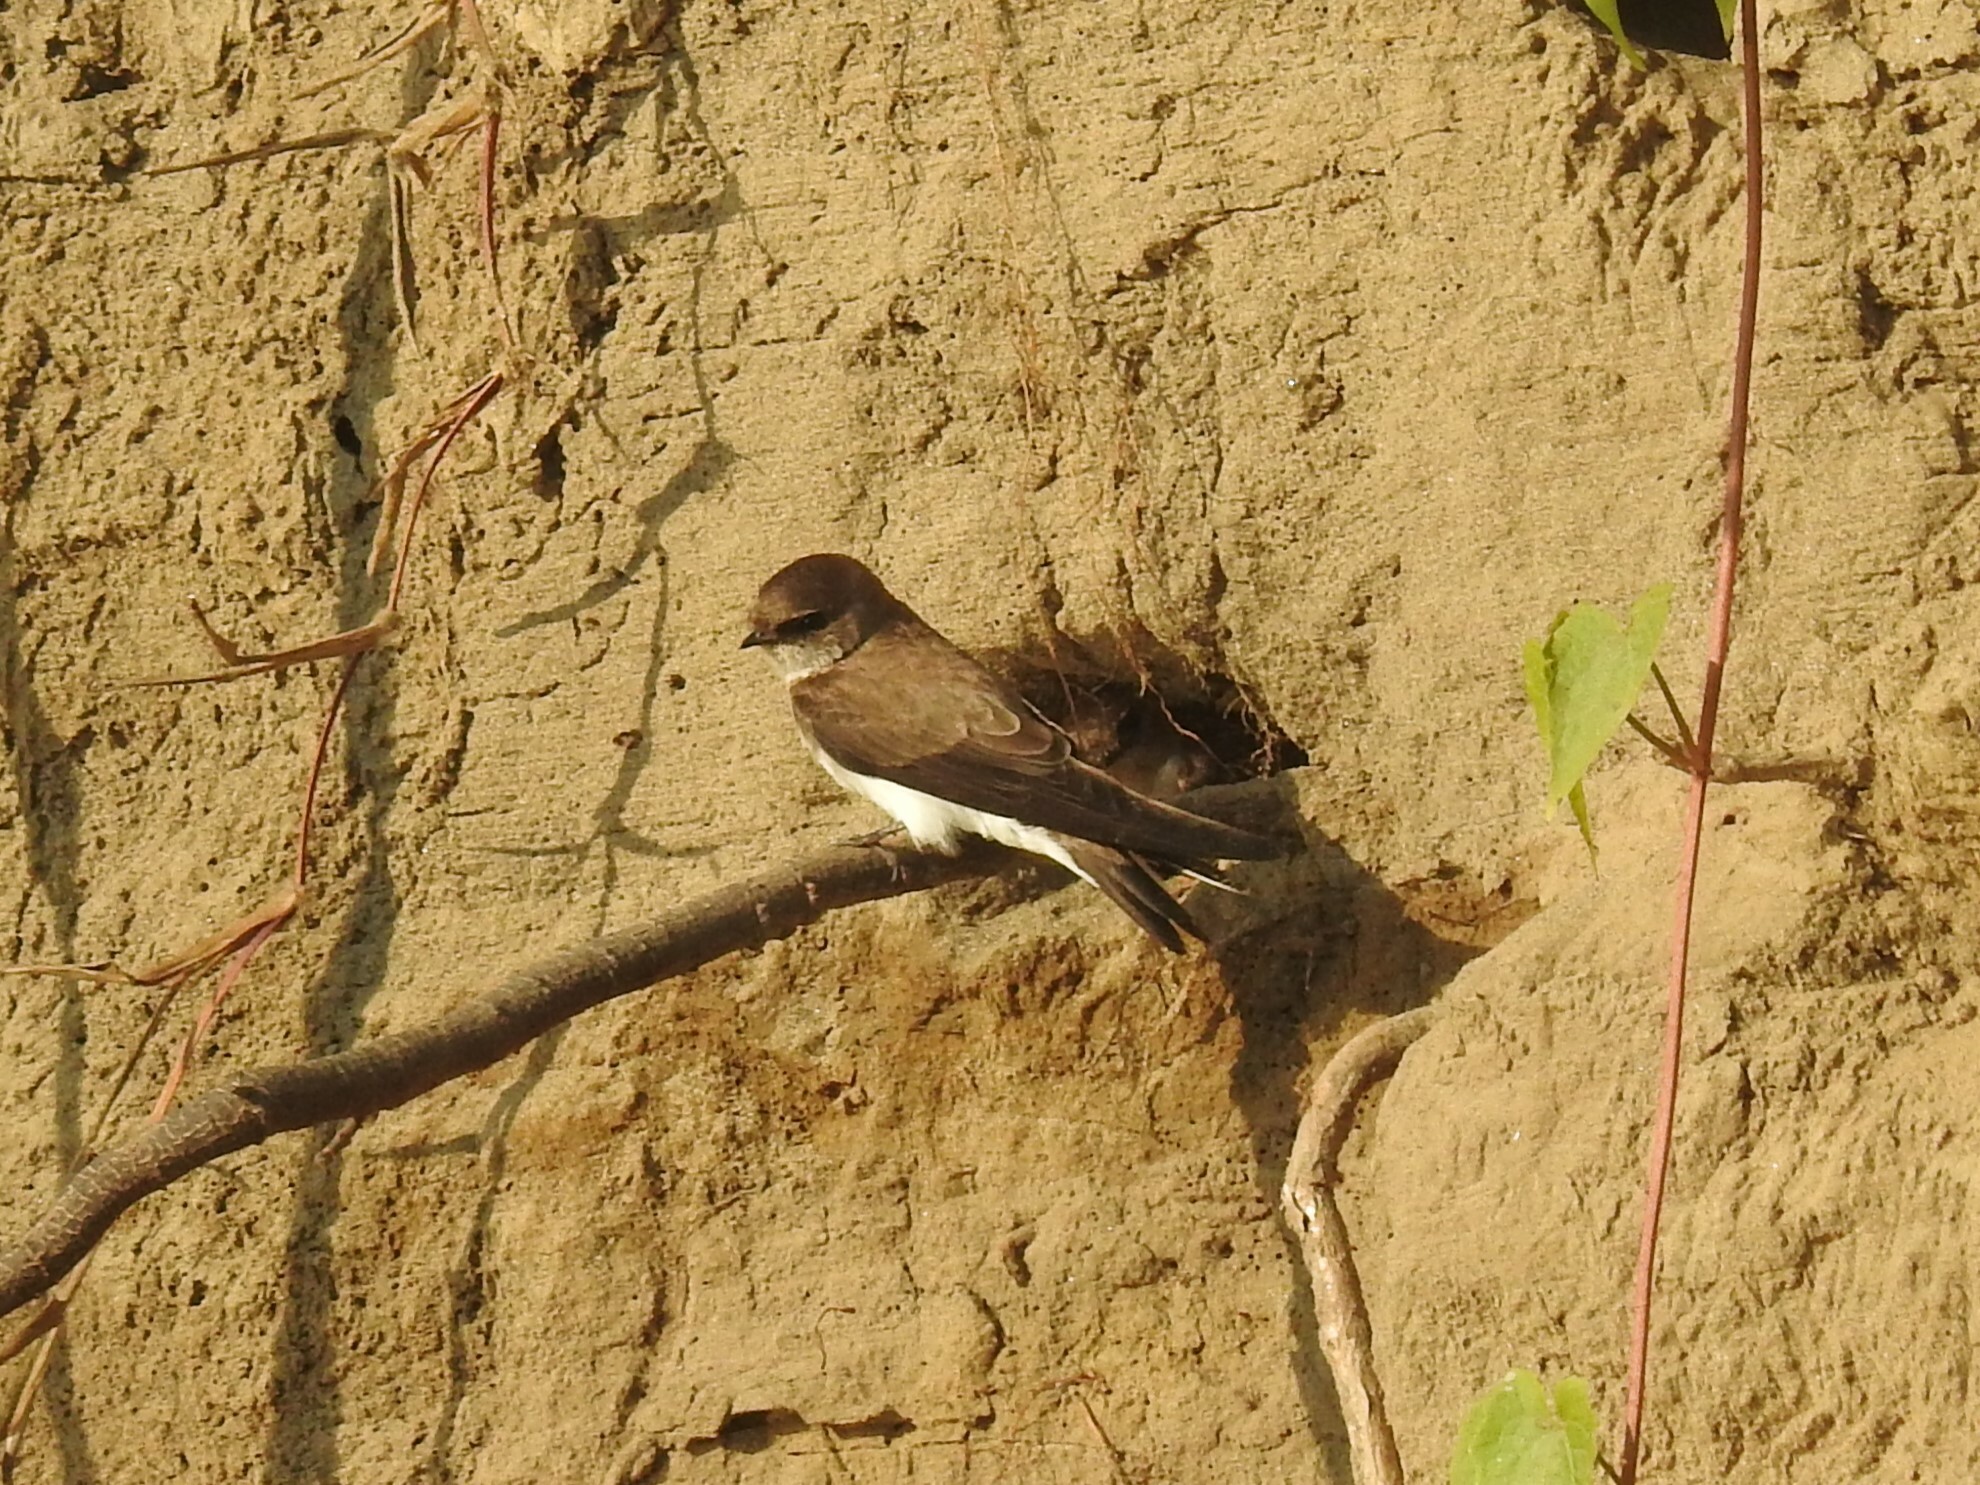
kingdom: Animalia
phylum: Chordata
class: Aves
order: Passeriformes
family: Hirundinidae
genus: Riparia
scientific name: Riparia chinensis
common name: Gray-throated martin
